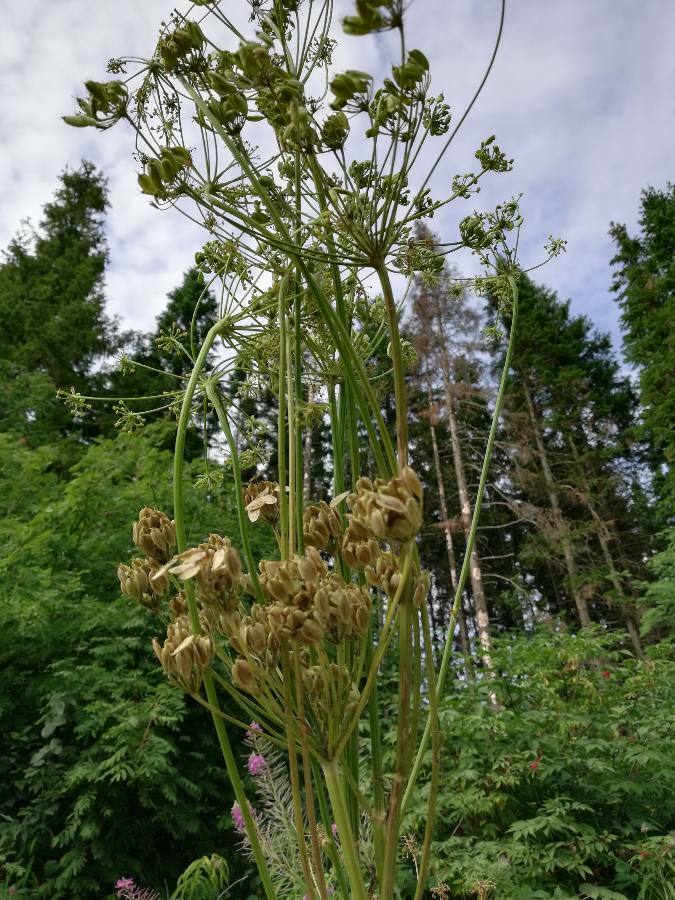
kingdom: Plantae
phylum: Tracheophyta
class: Magnoliopsida
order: Apiales
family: Apiaceae
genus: Heracleum
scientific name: Heracleum sphondylium
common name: Hogweed
